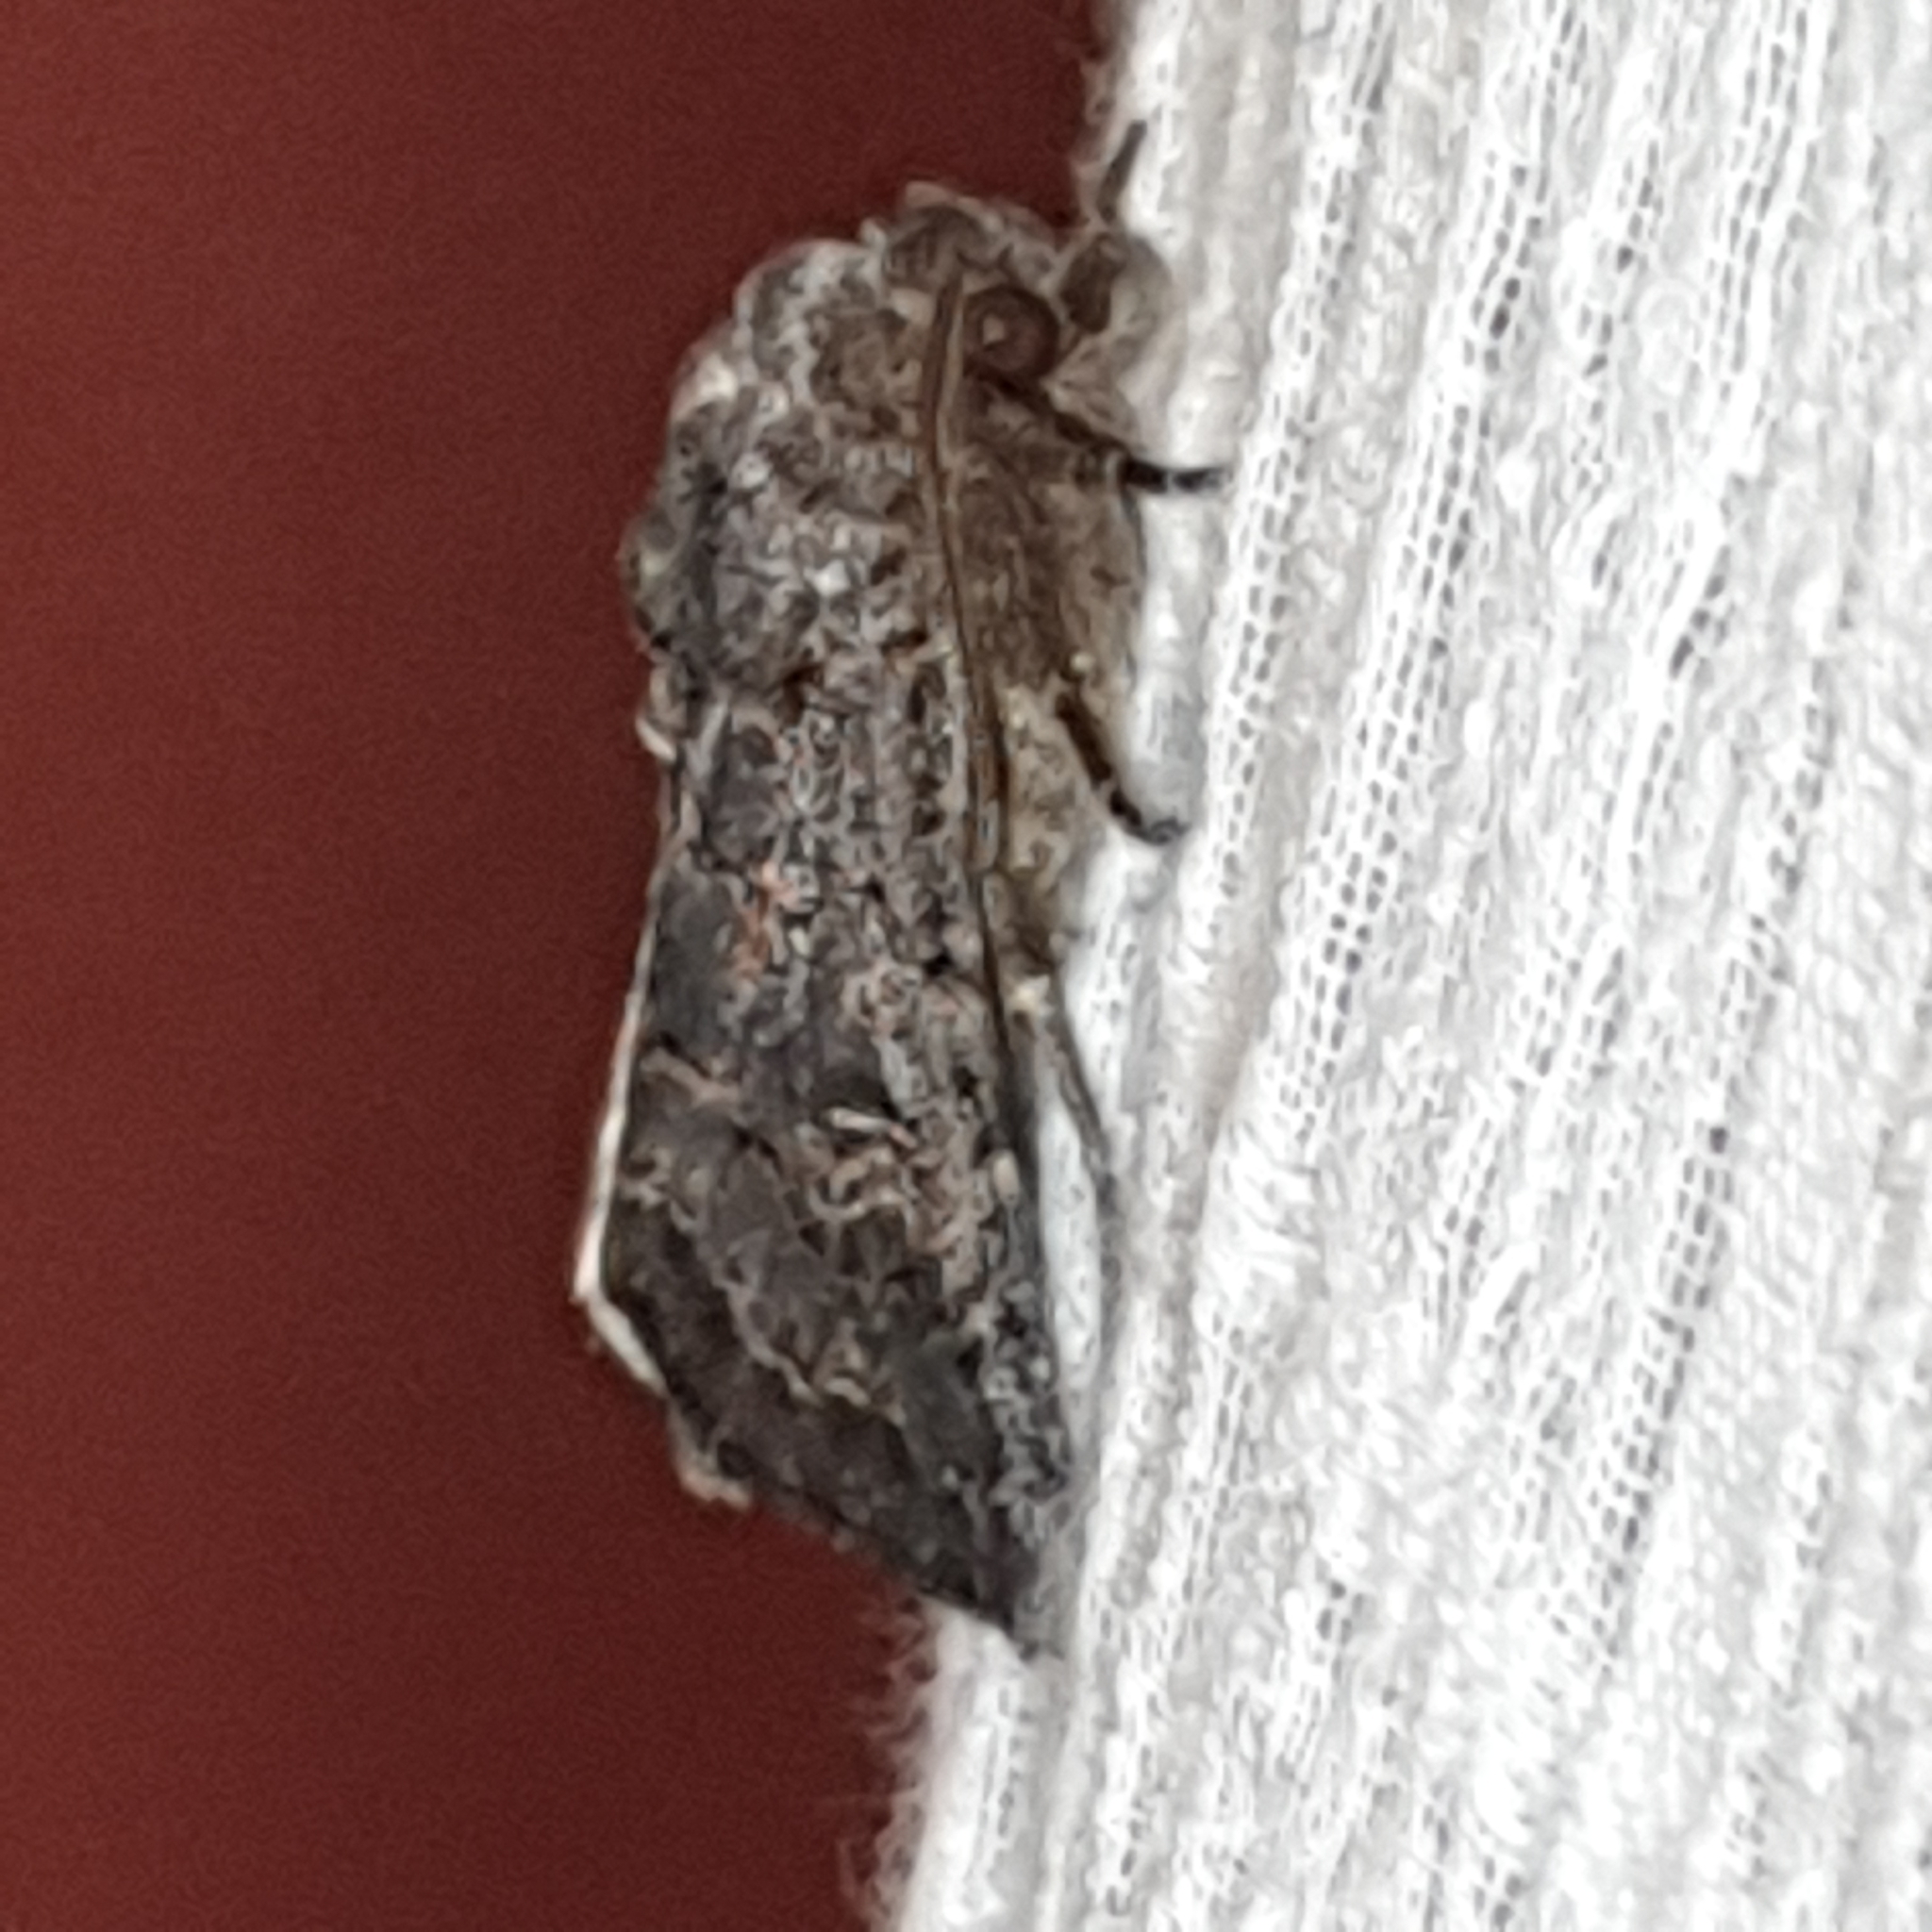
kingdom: Animalia
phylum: Arthropoda
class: Insecta
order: Lepidoptera
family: Noctuidae
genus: Tholera
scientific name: Tholera cespitis
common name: Hedge rustic
